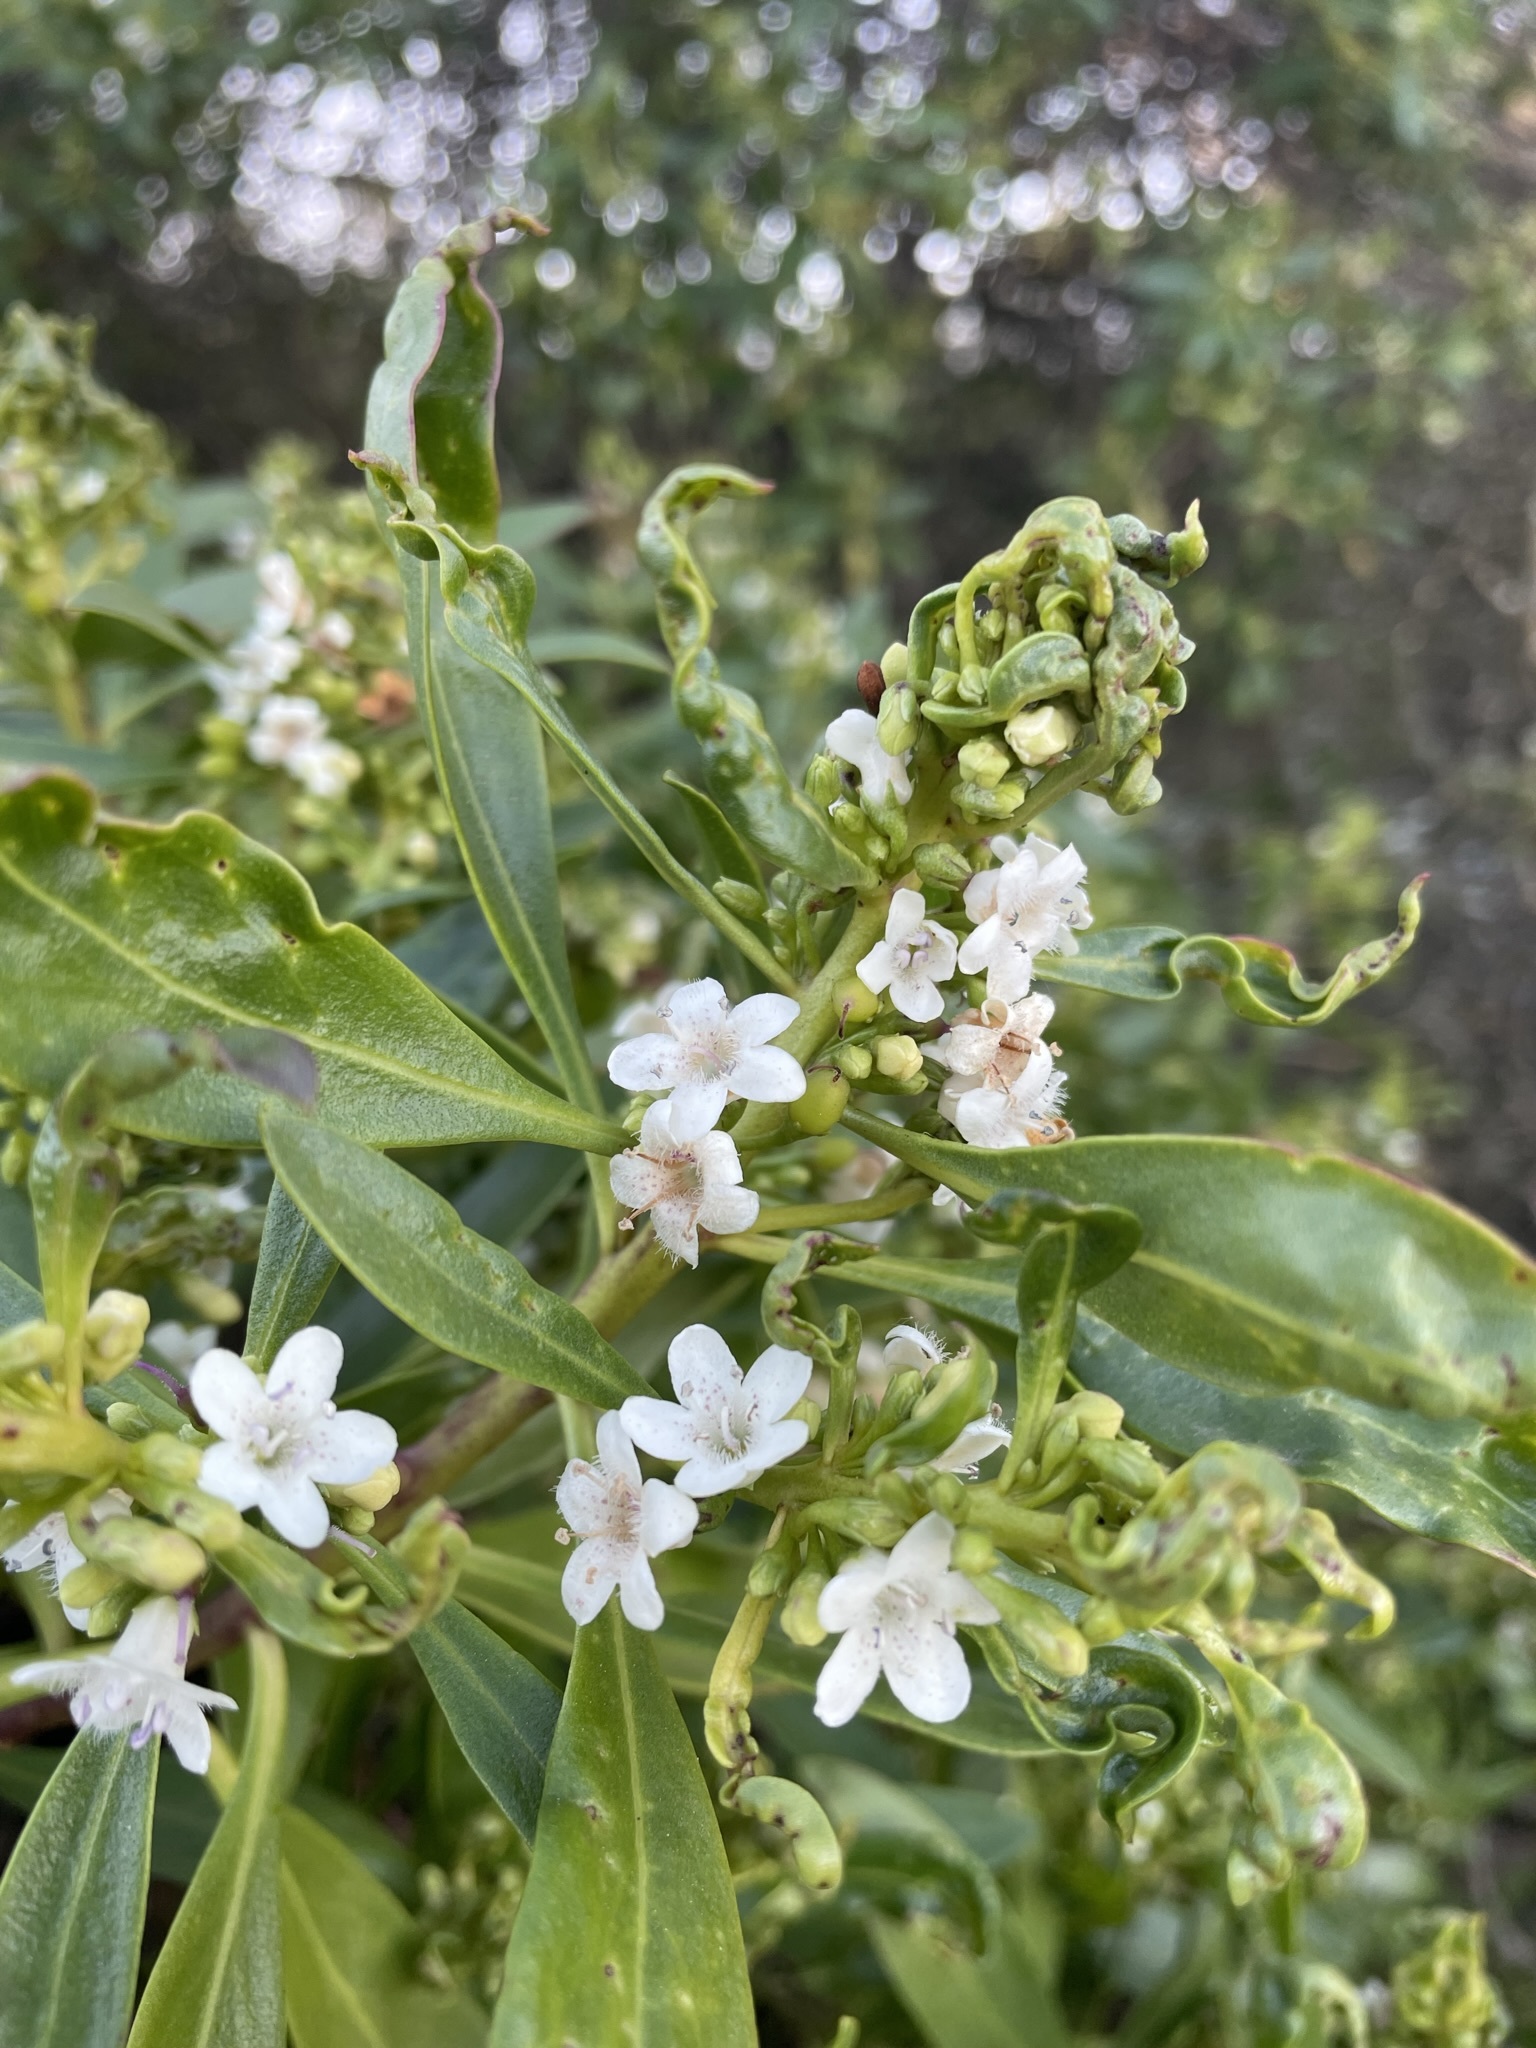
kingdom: Plantae
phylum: Tracheophyta
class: Magnoliopsida
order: Lamiales
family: Scrophulariaceae
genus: Myoporum
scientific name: Myoporum laetum
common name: Ngaio tree
